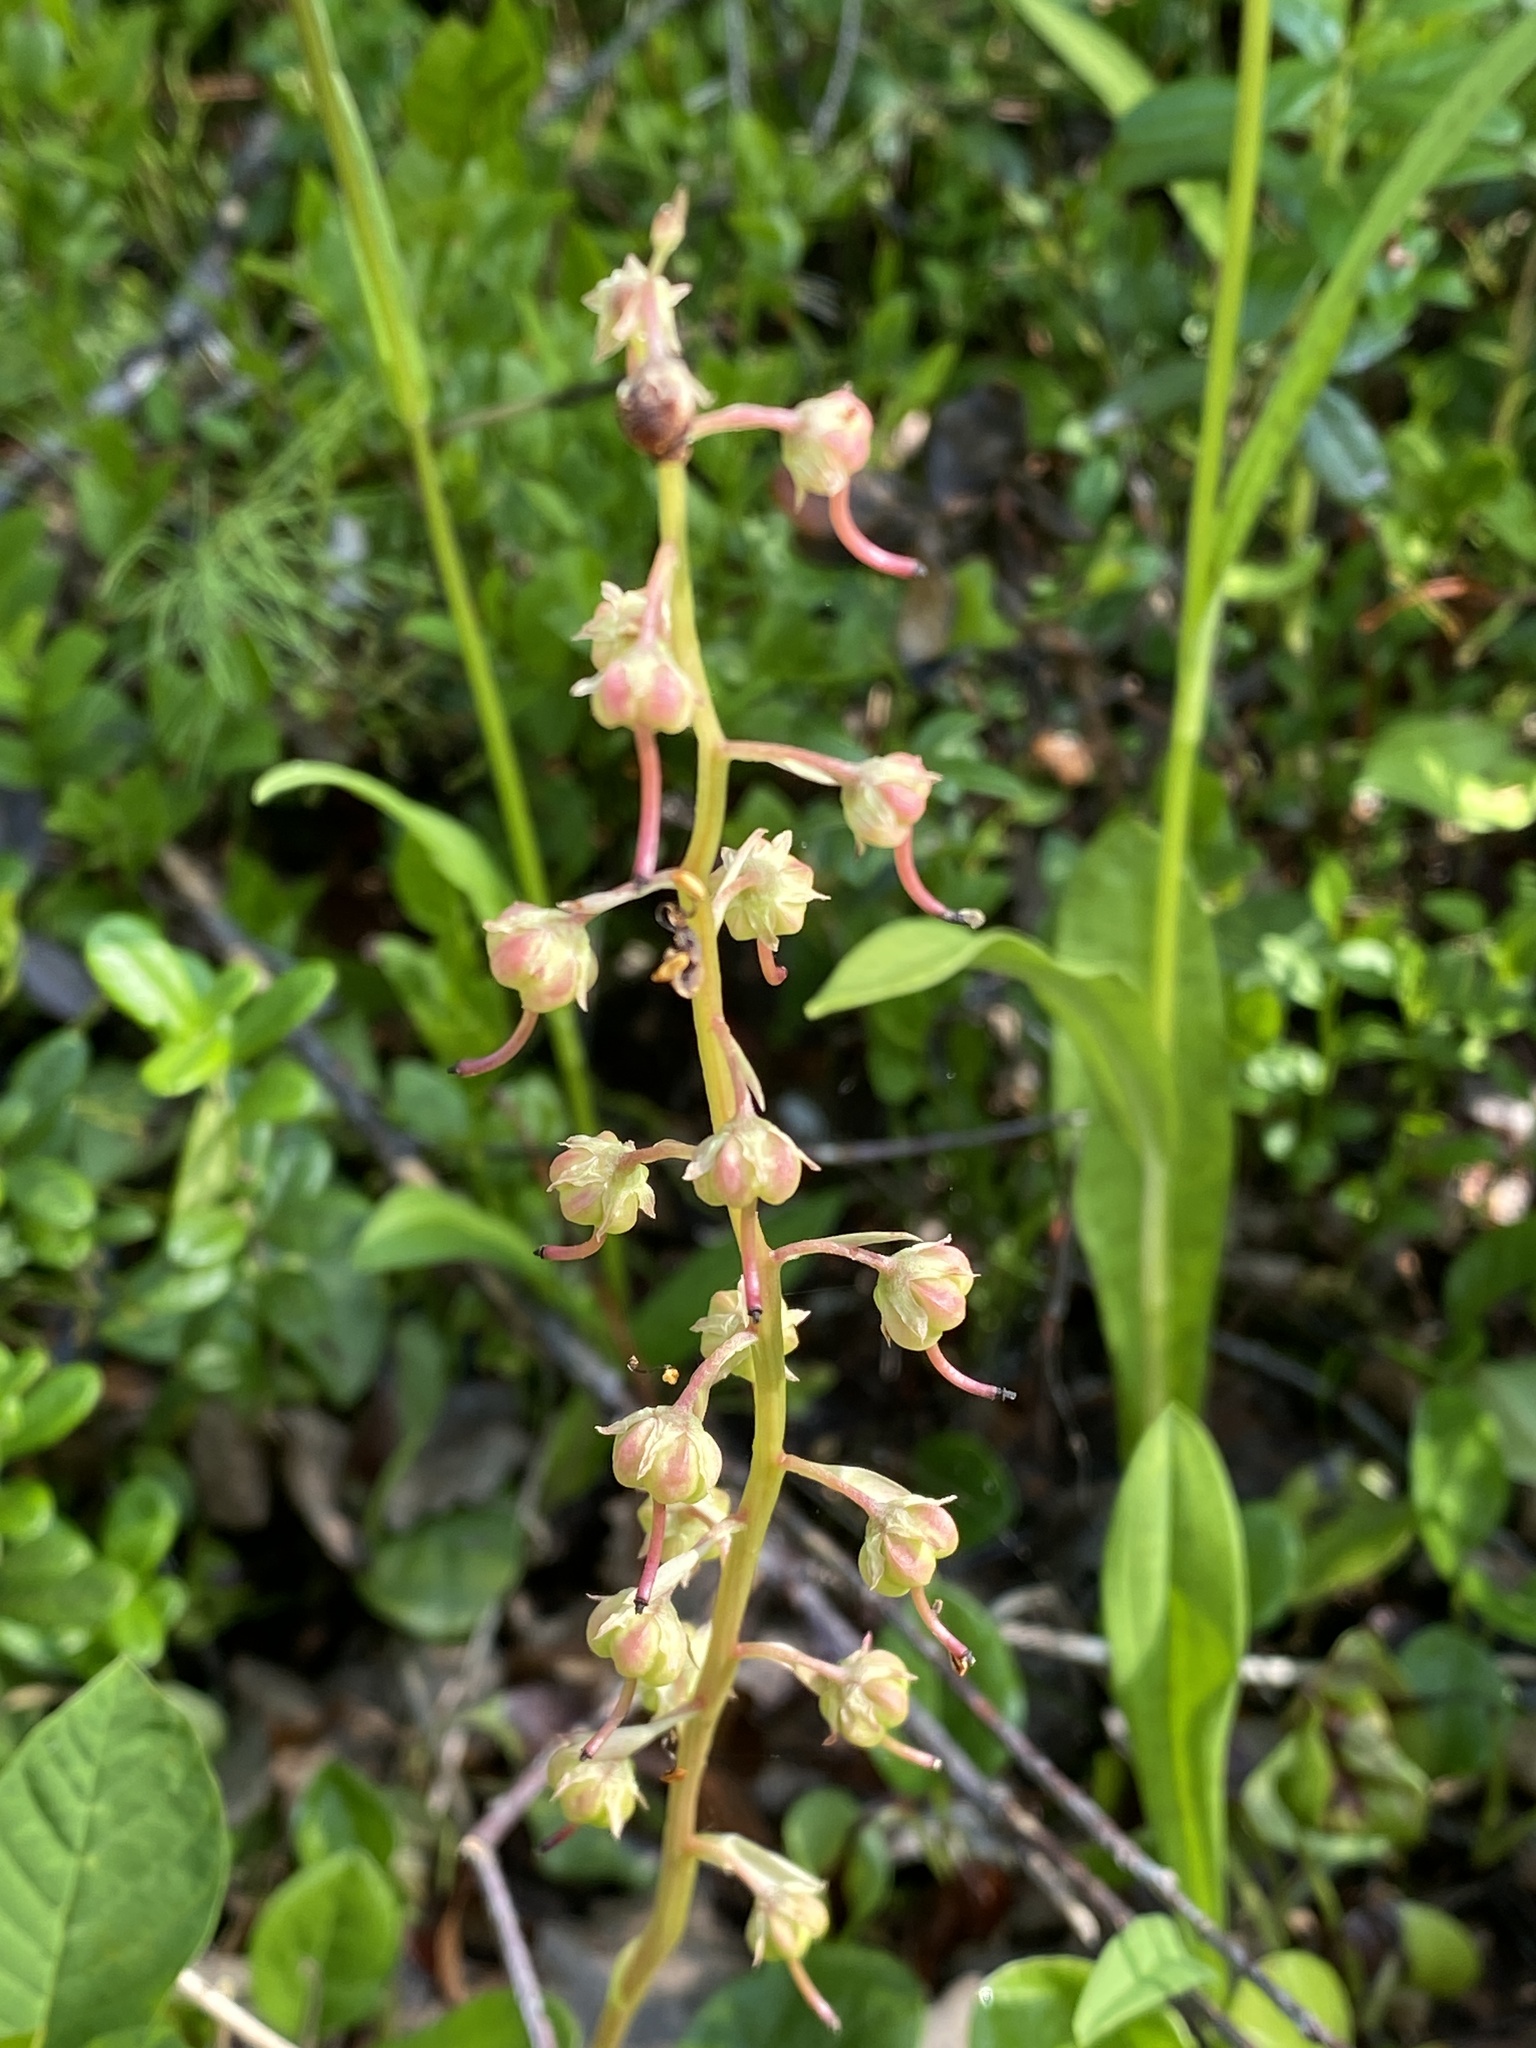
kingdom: Plantae
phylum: Tracheophyta
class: Magnoliopsida
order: Ericales
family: Ericaceae
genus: Pyrola
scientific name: Pyrola rotundifolia
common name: Round-leaved wintergreen
